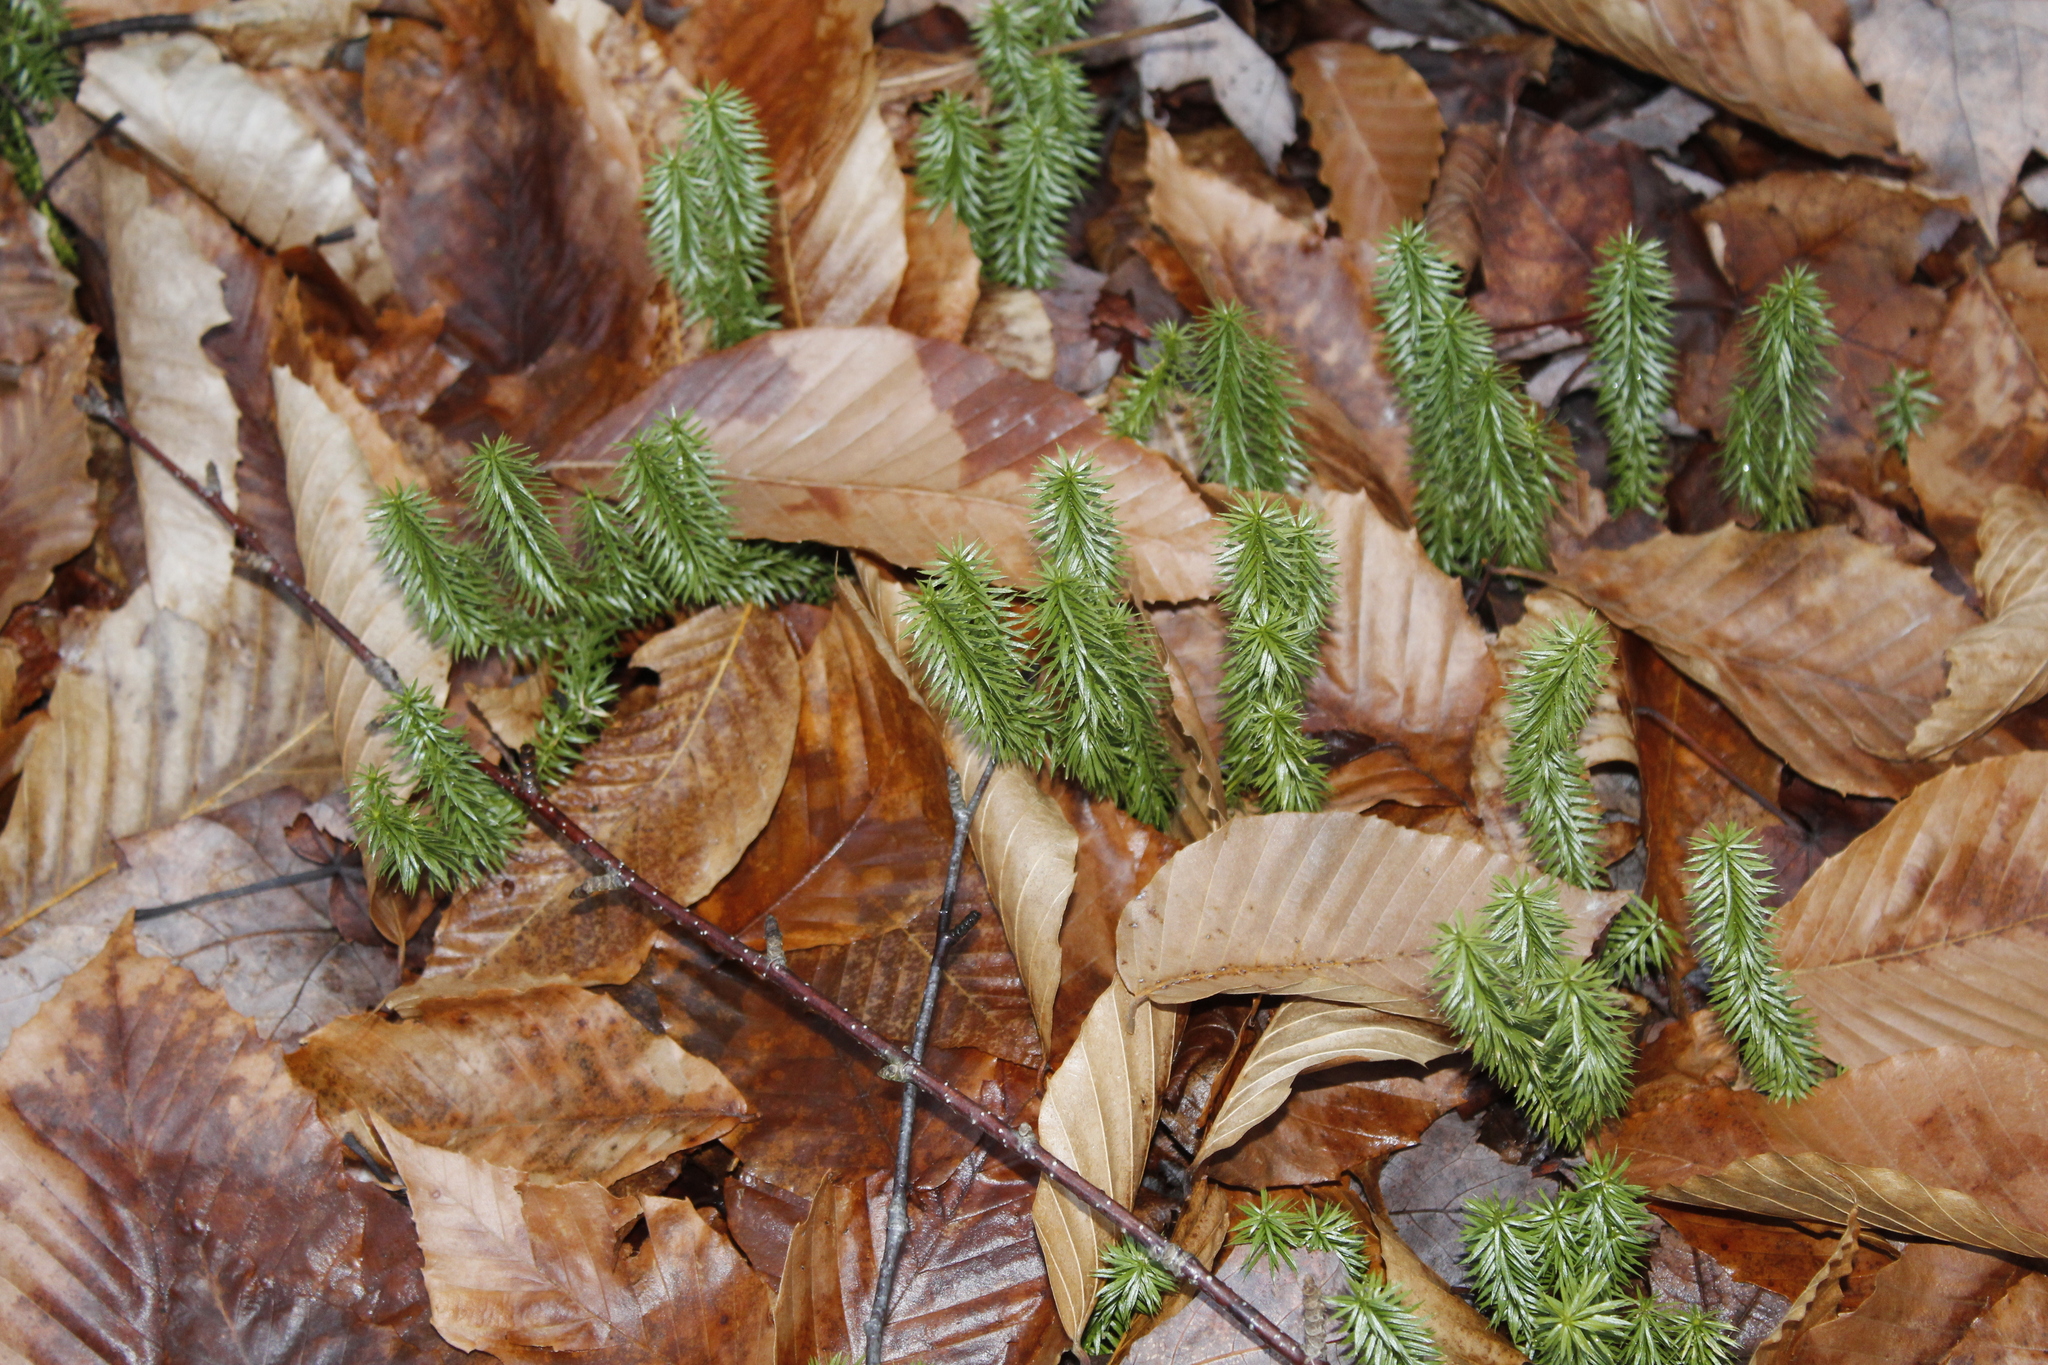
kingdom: Plantae
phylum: Tracheophyta
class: Lycopodiopsida
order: Lycopodiales
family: Lycopodiaceae
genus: Spinulum
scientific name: Spinulum annotinum
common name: Interrupted club-moss
